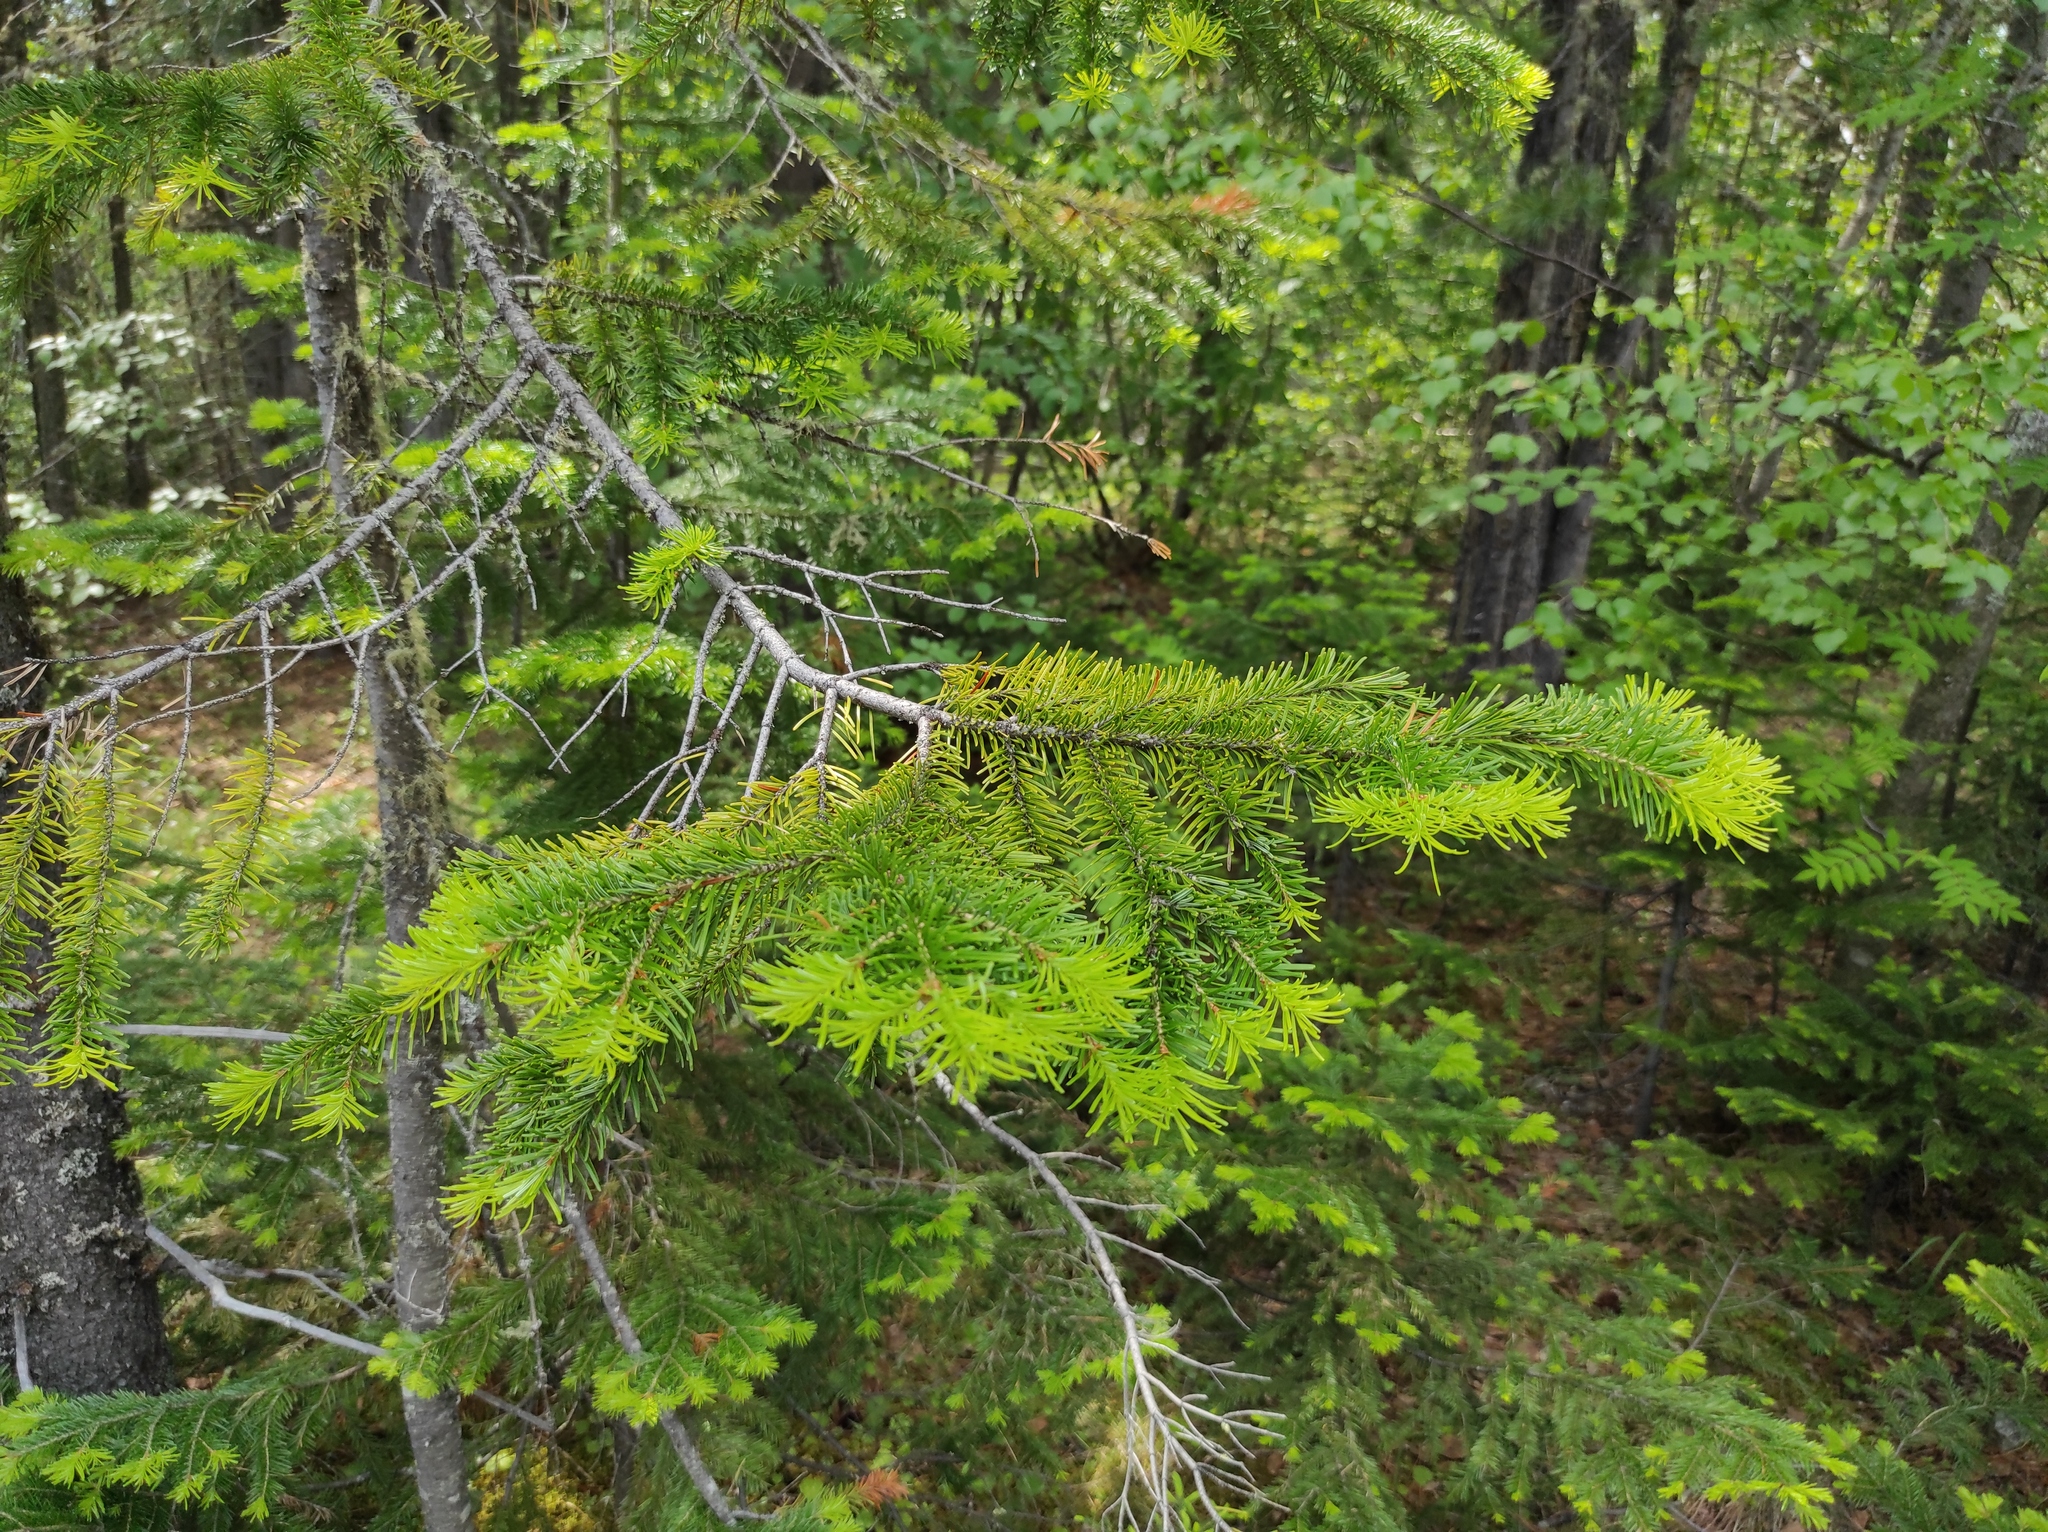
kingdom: Plantae
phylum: Tracheophyta
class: Pinopsida
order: Pinales
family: Pinaceae
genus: Abies
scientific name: Abies sibirica
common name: Siberian fir
